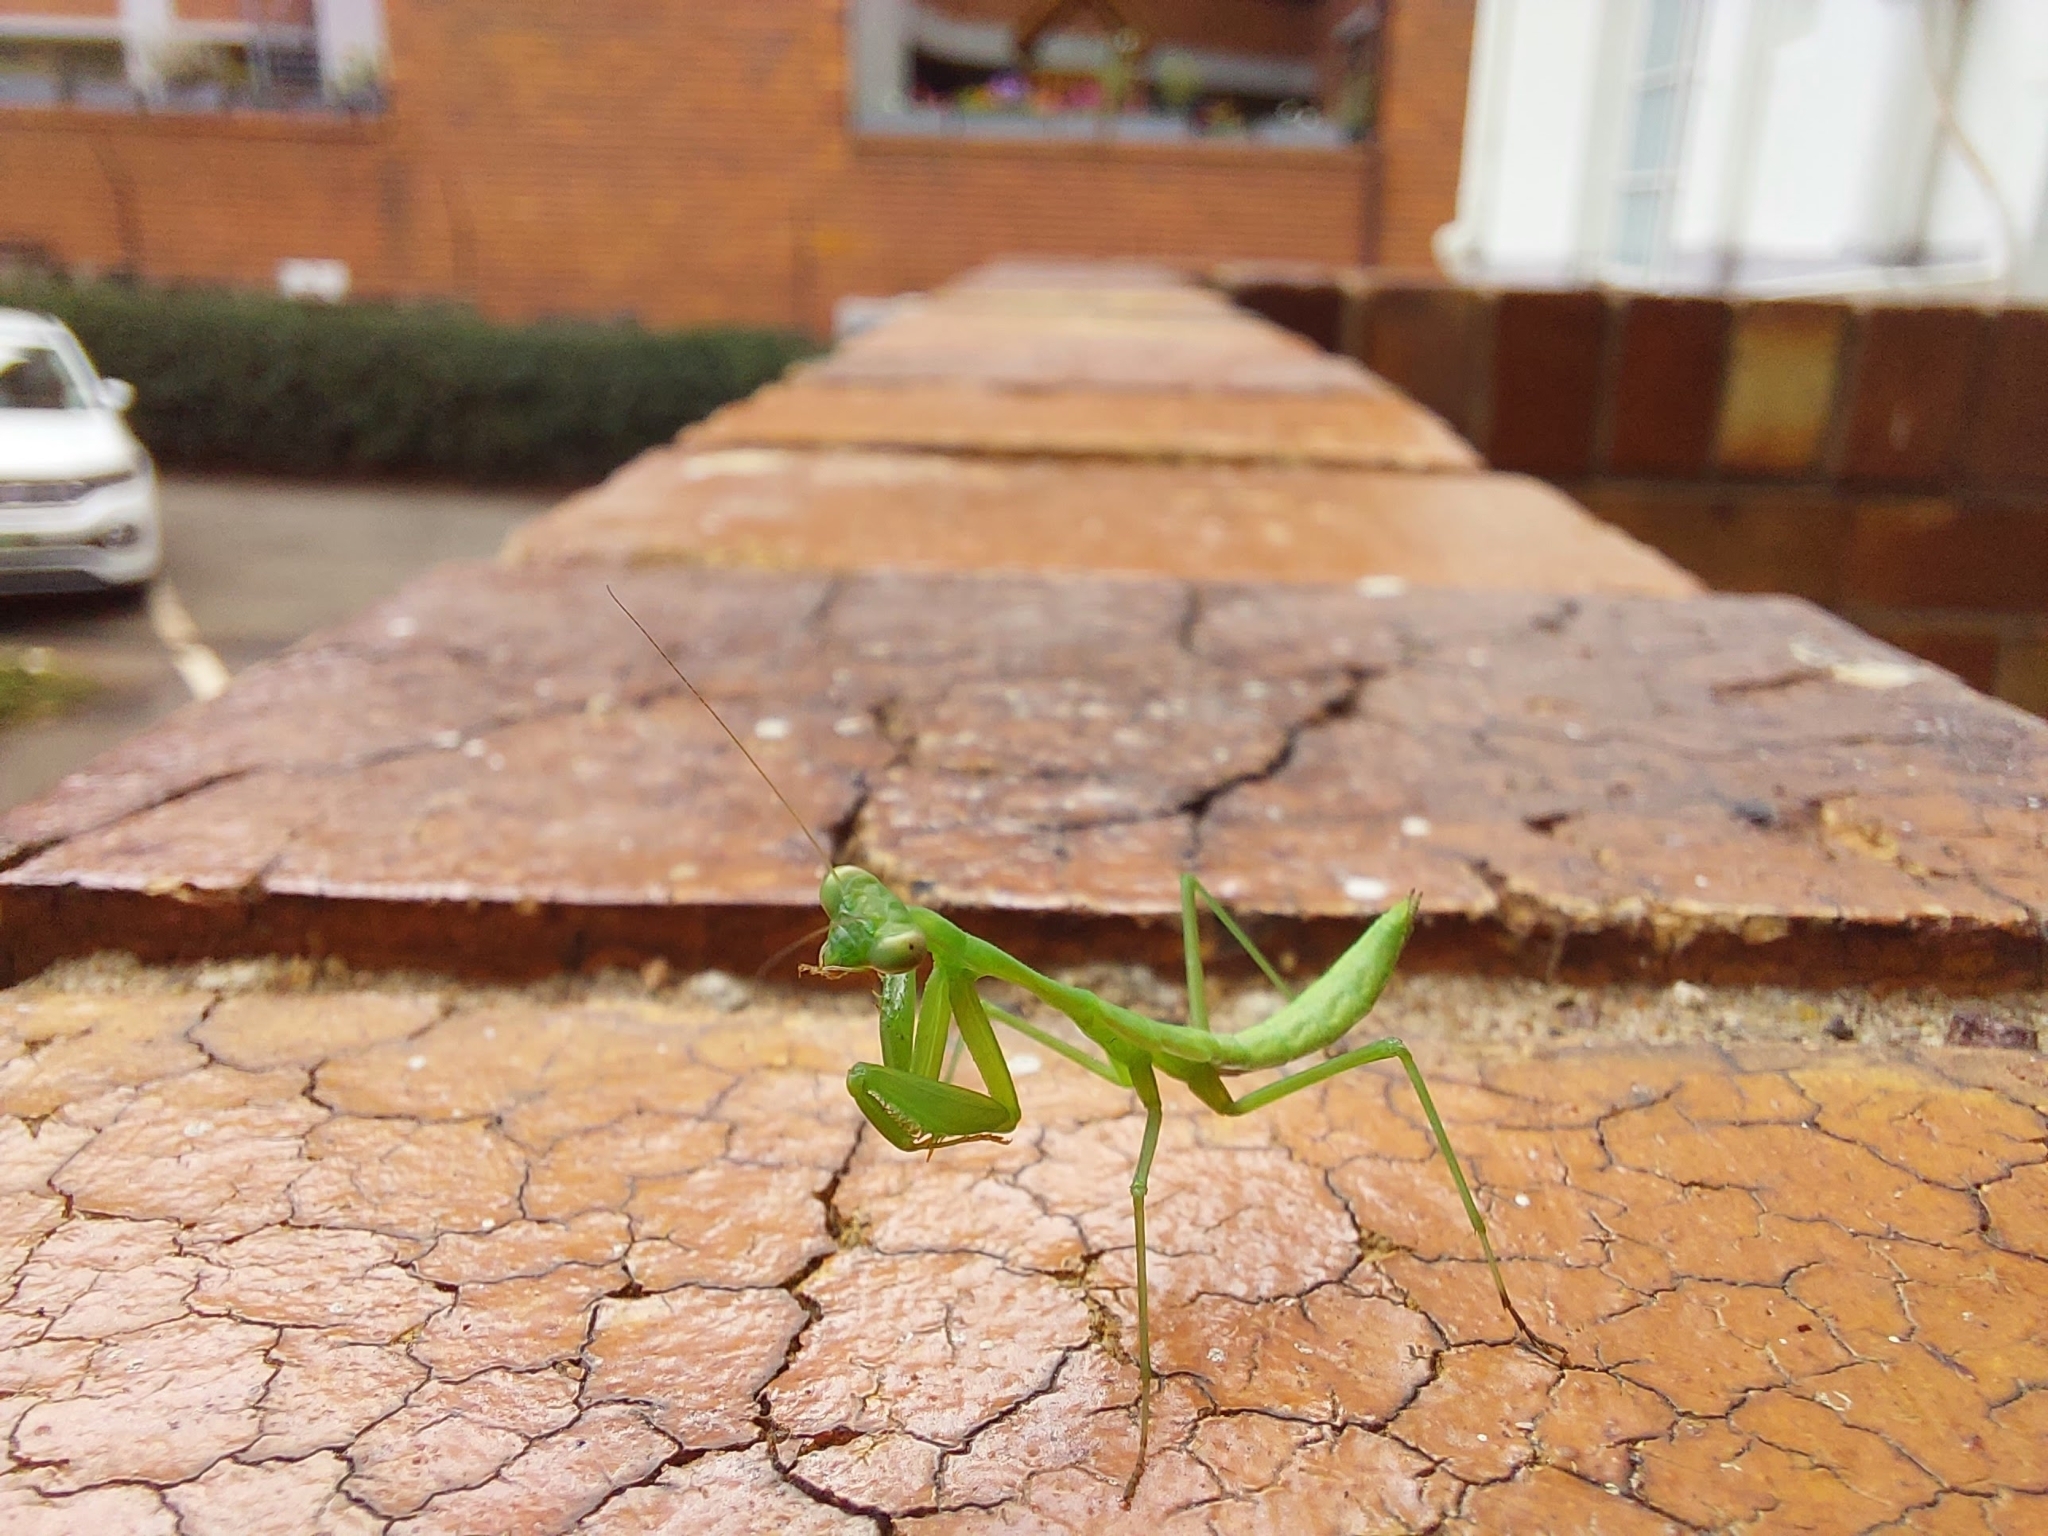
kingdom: Animalia
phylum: Arthropoda
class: Insecta
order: Mantodea
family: Miomantidae
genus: Miomantis
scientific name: Miomantis caffra
